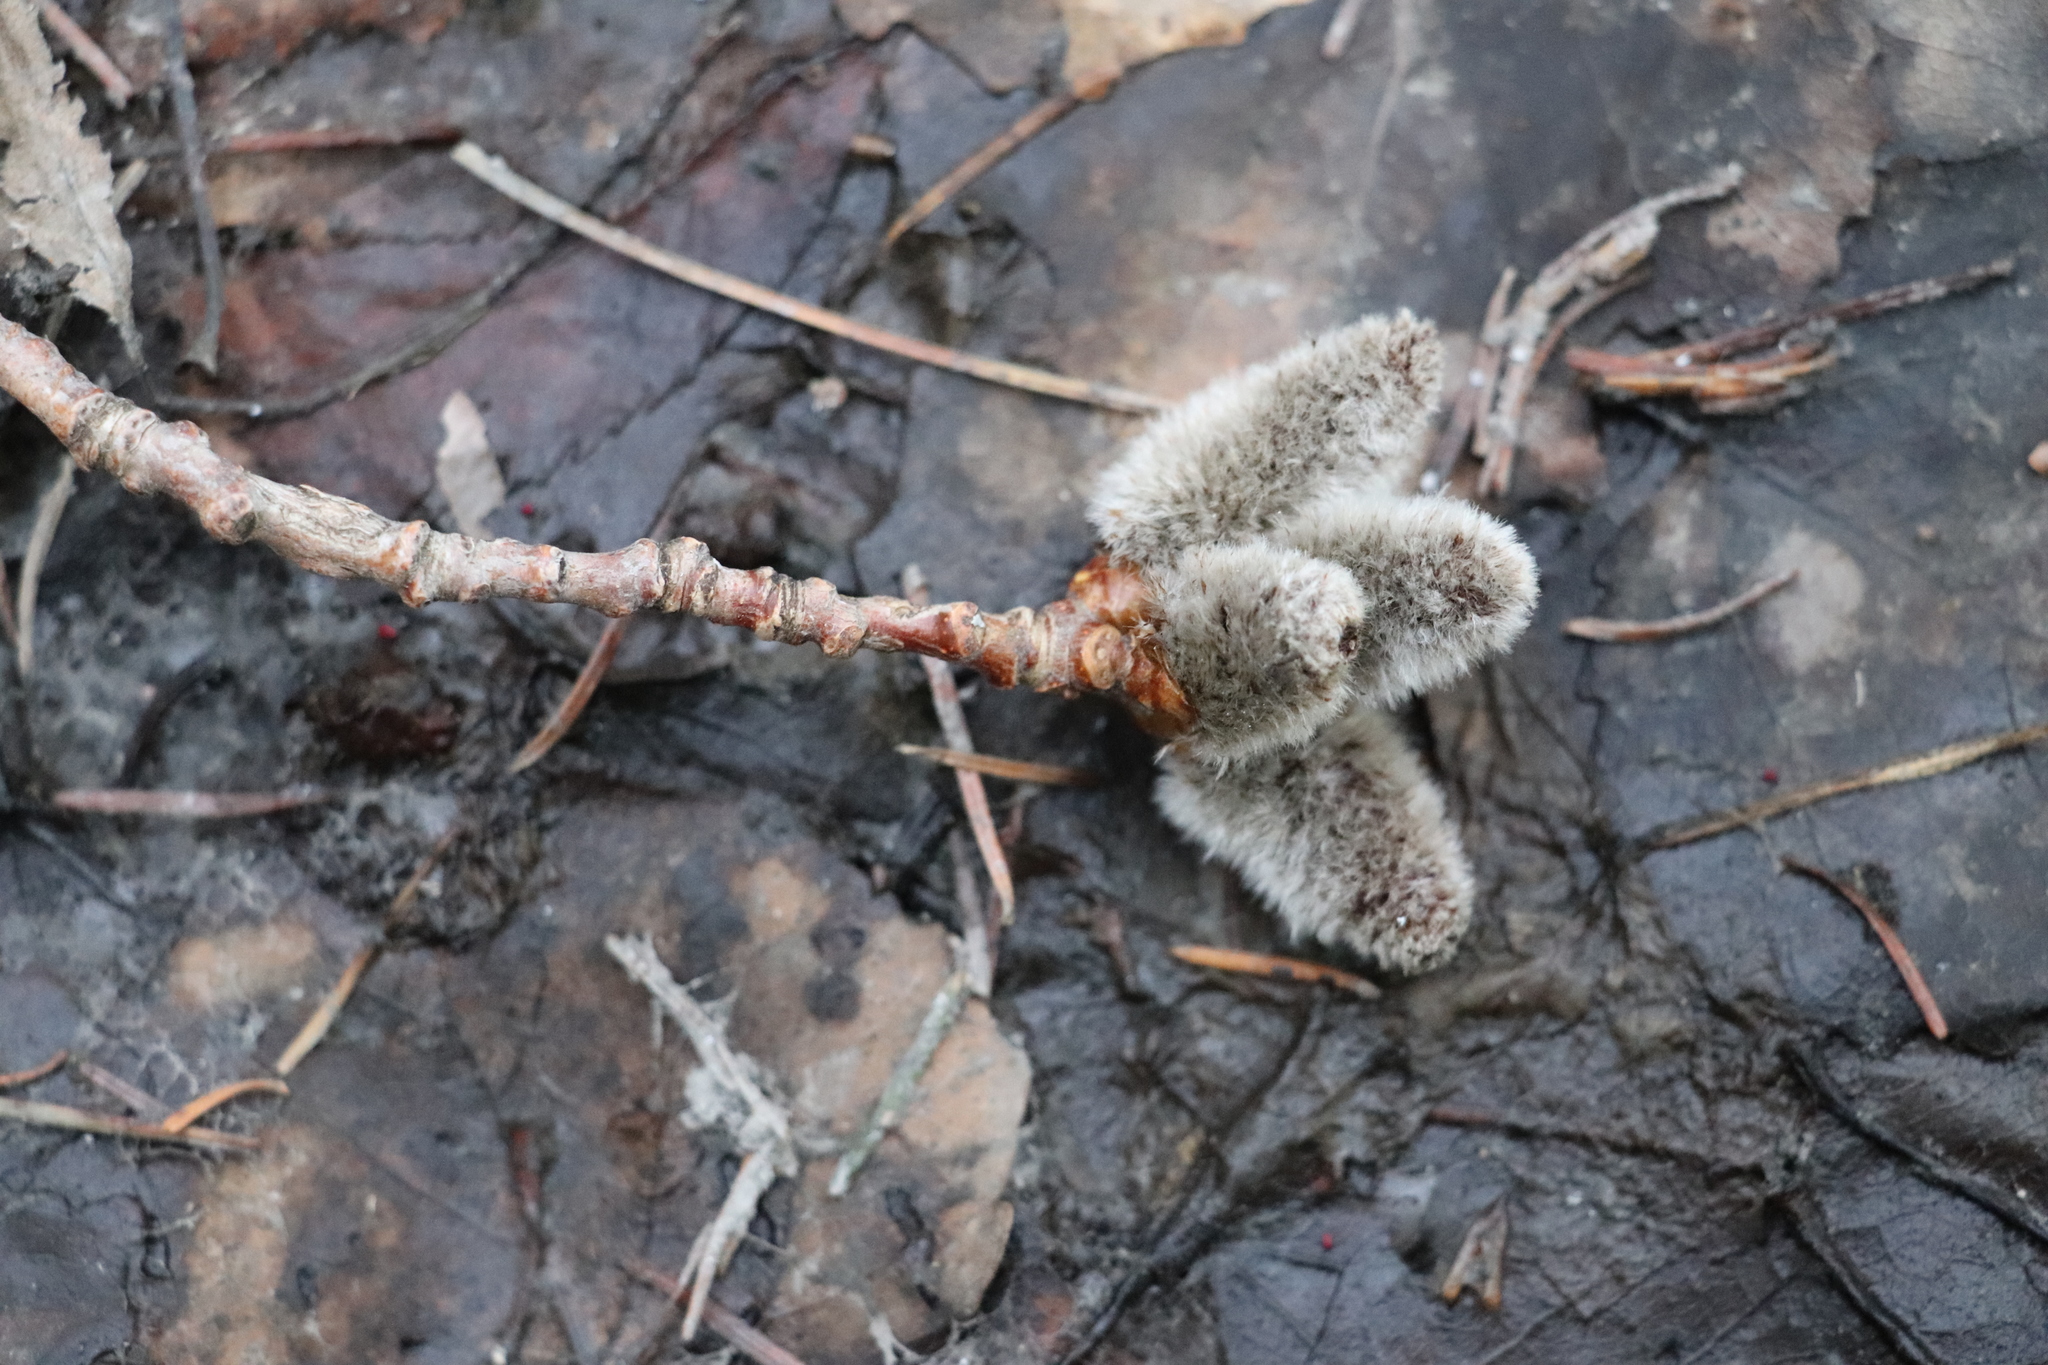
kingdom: Plantae
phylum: Tracheophyta
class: Magnoliopsida
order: Malpighiales
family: Salicaceae
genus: Populus
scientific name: Populus tremula
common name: European aspen
